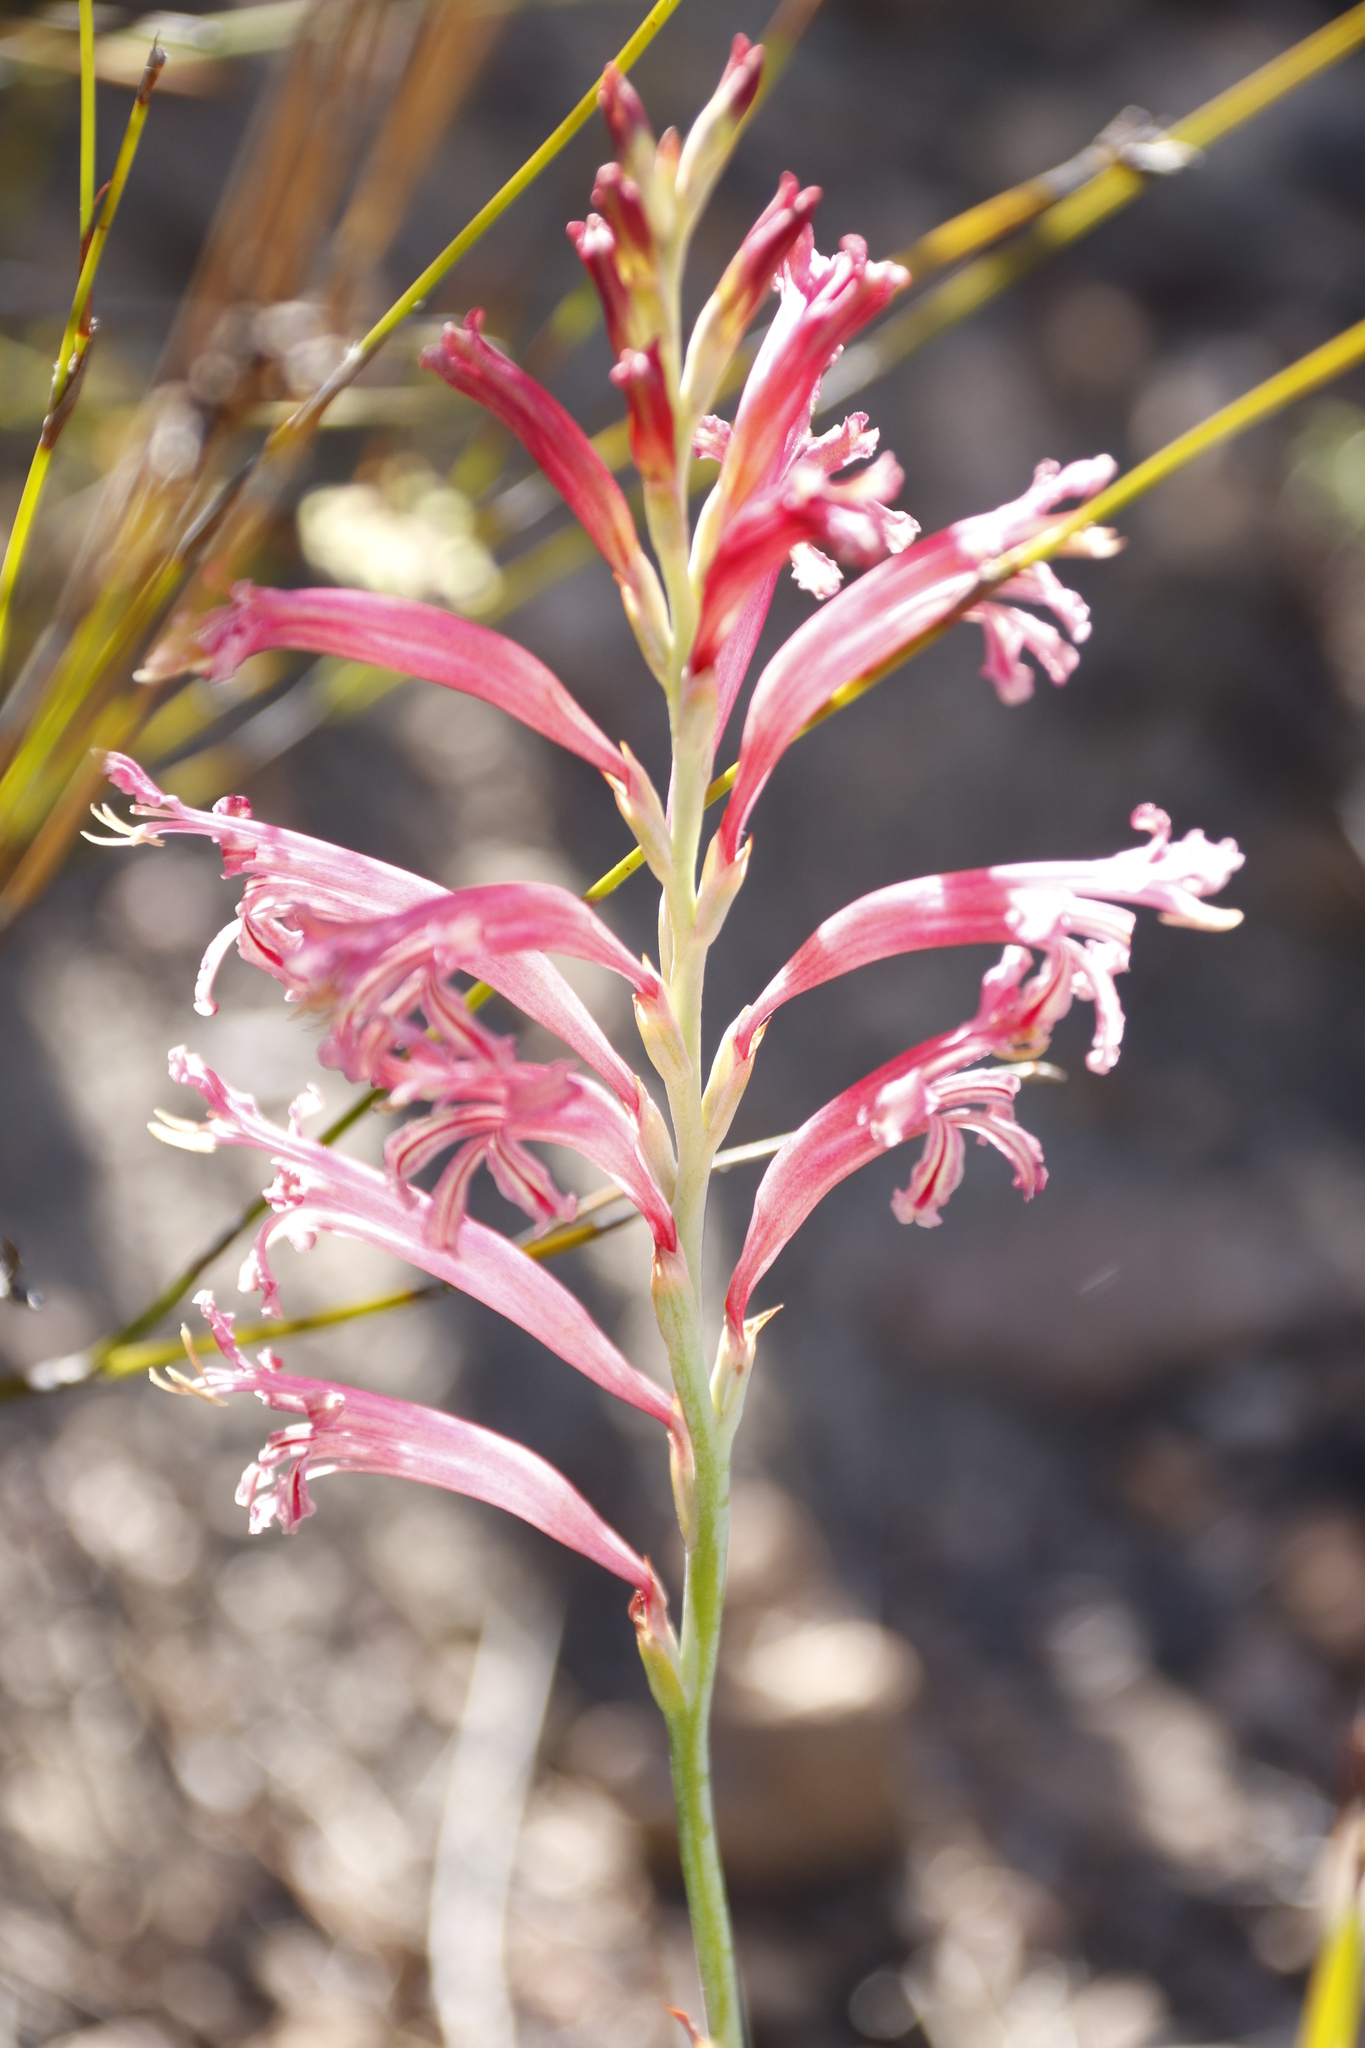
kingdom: Plantae
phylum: Tracheophyta
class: Liliopsida
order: Asparagales
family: Iridaceae
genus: Tritoniopsis
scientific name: Tritoniopsis antholyza
